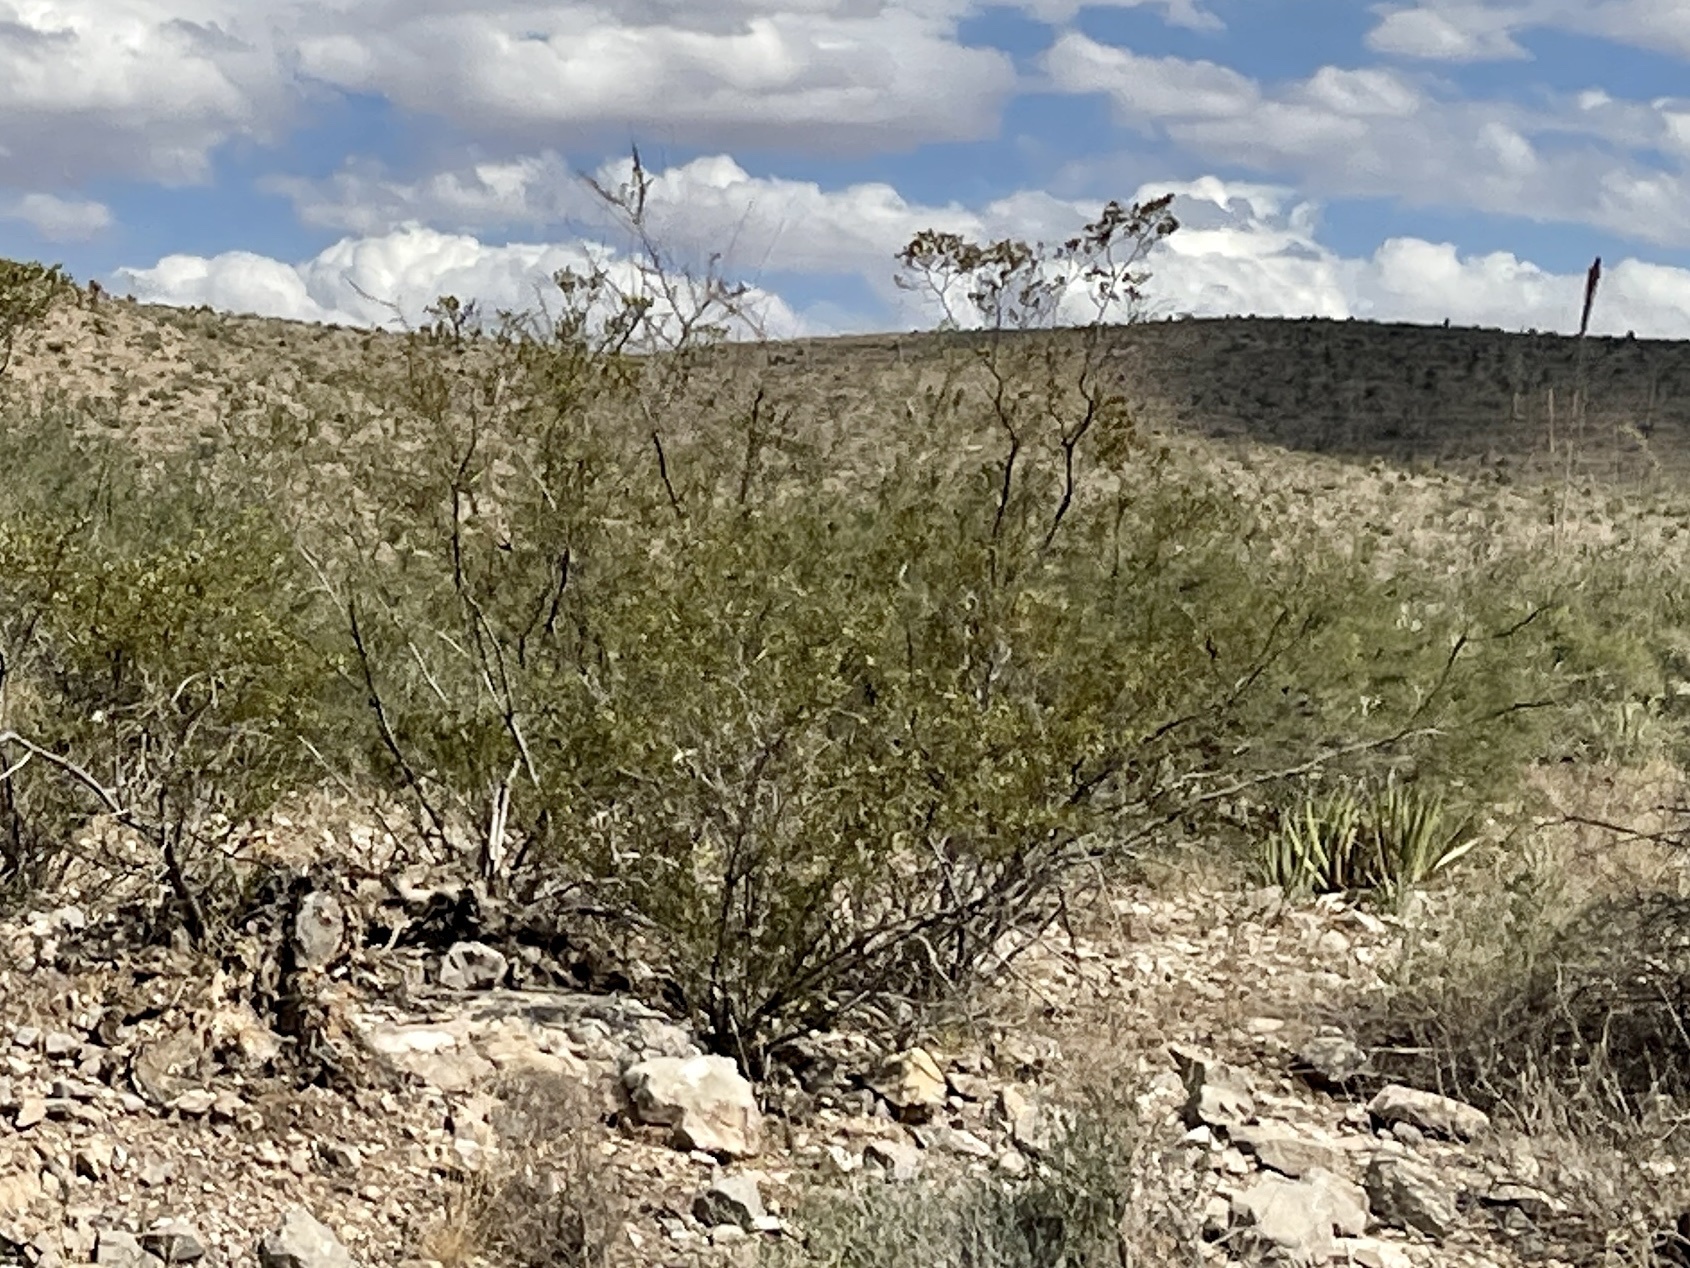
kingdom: Plantae
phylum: Tracheophyta
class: Magnoliopsida
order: Zygophyllales
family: Zygophyllaceae
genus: Larrea
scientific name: Larrea tridentata
